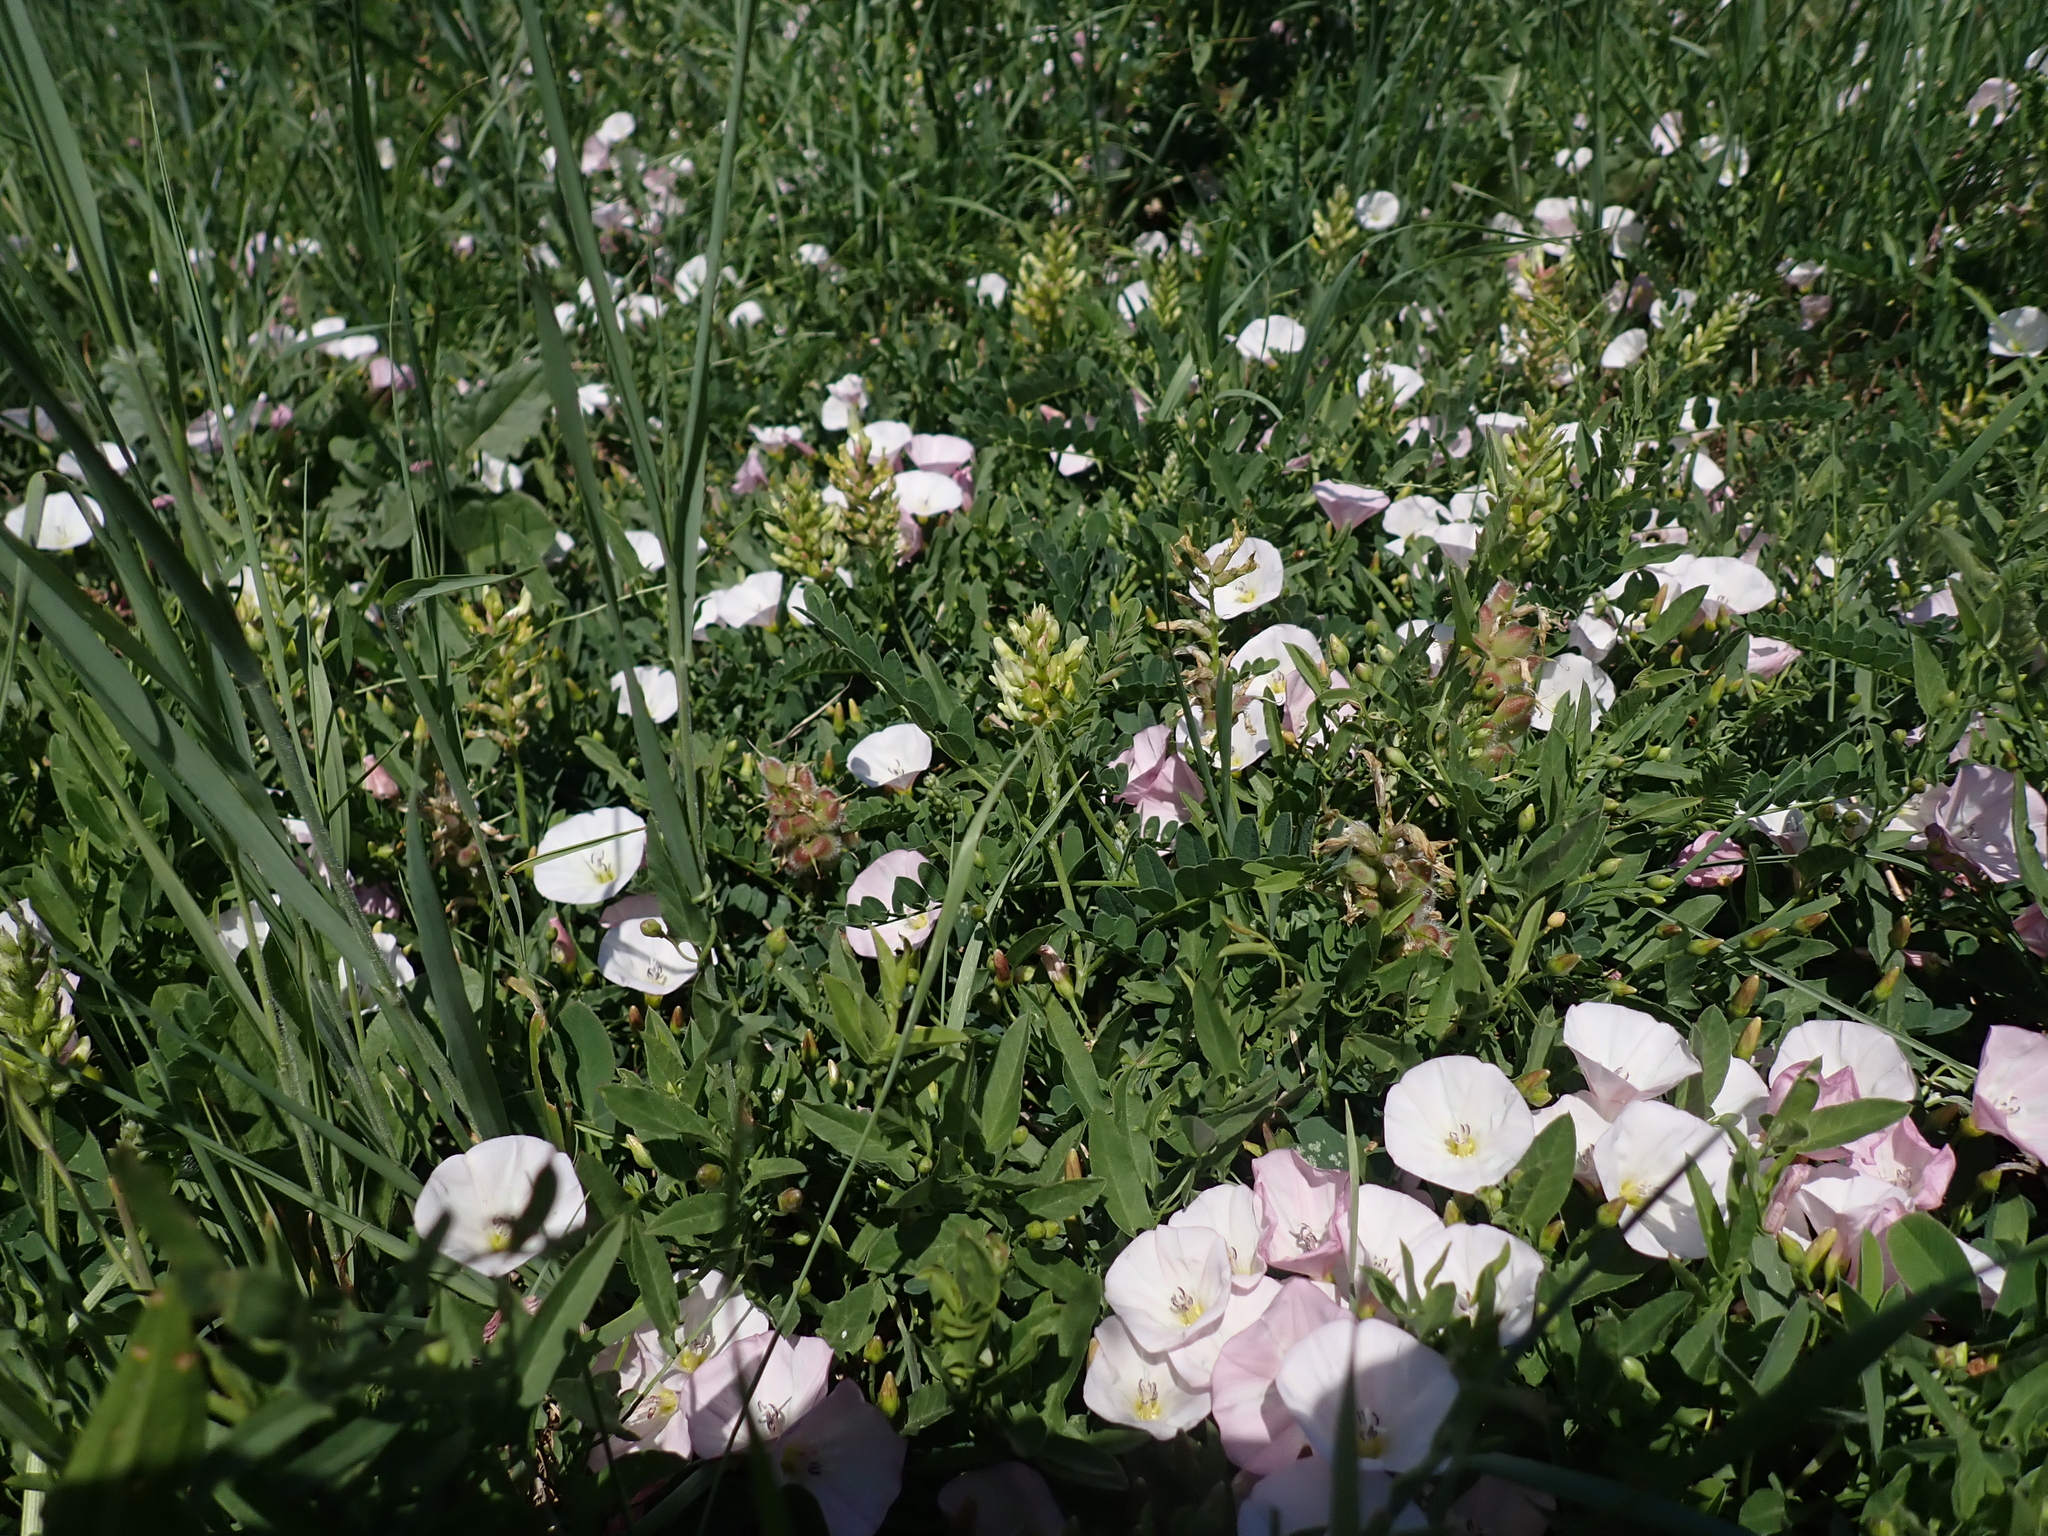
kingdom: Plantae
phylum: Tracheophyta
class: Magnoliopsida
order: Fabales
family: Fabaceae
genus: Astragalus
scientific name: Astragalus cicer
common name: Chick-pea milk-vetch
